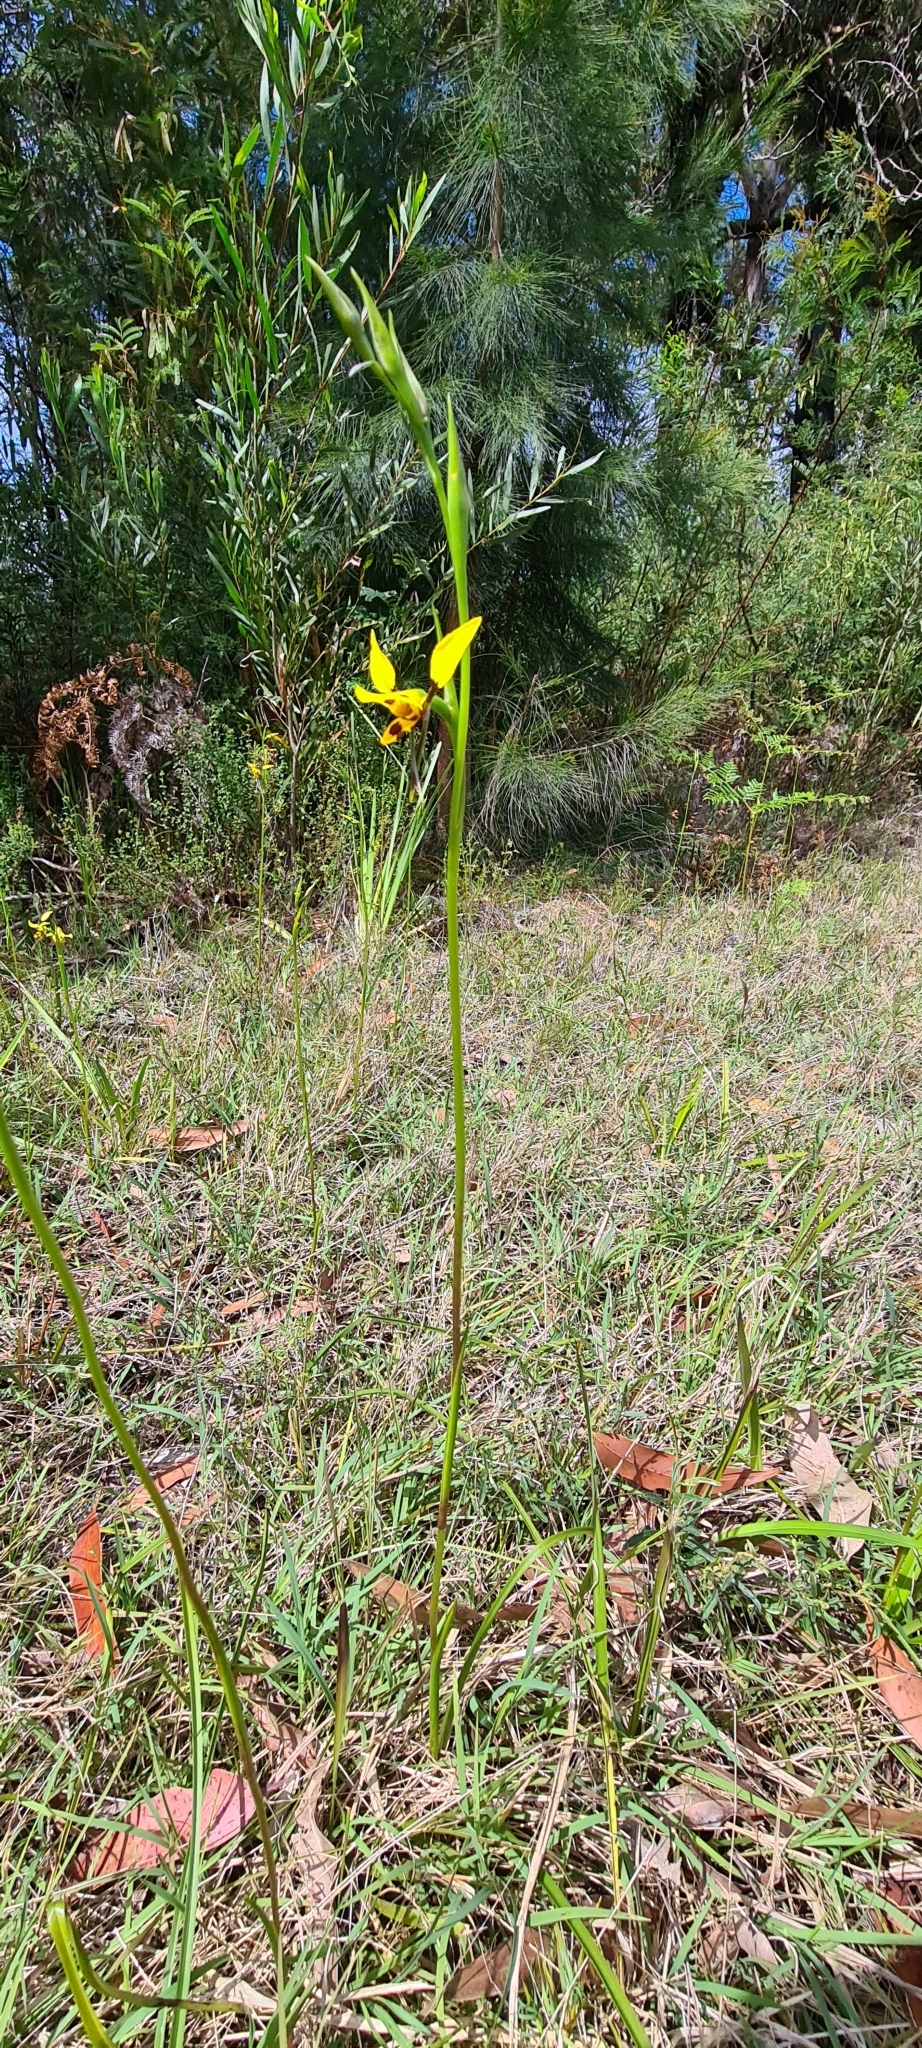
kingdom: Plantae
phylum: Tracheophyta
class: Liliopsida
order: Asparagales
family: Orchidaceae
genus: Diuris
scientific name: Diuris sulphurea
